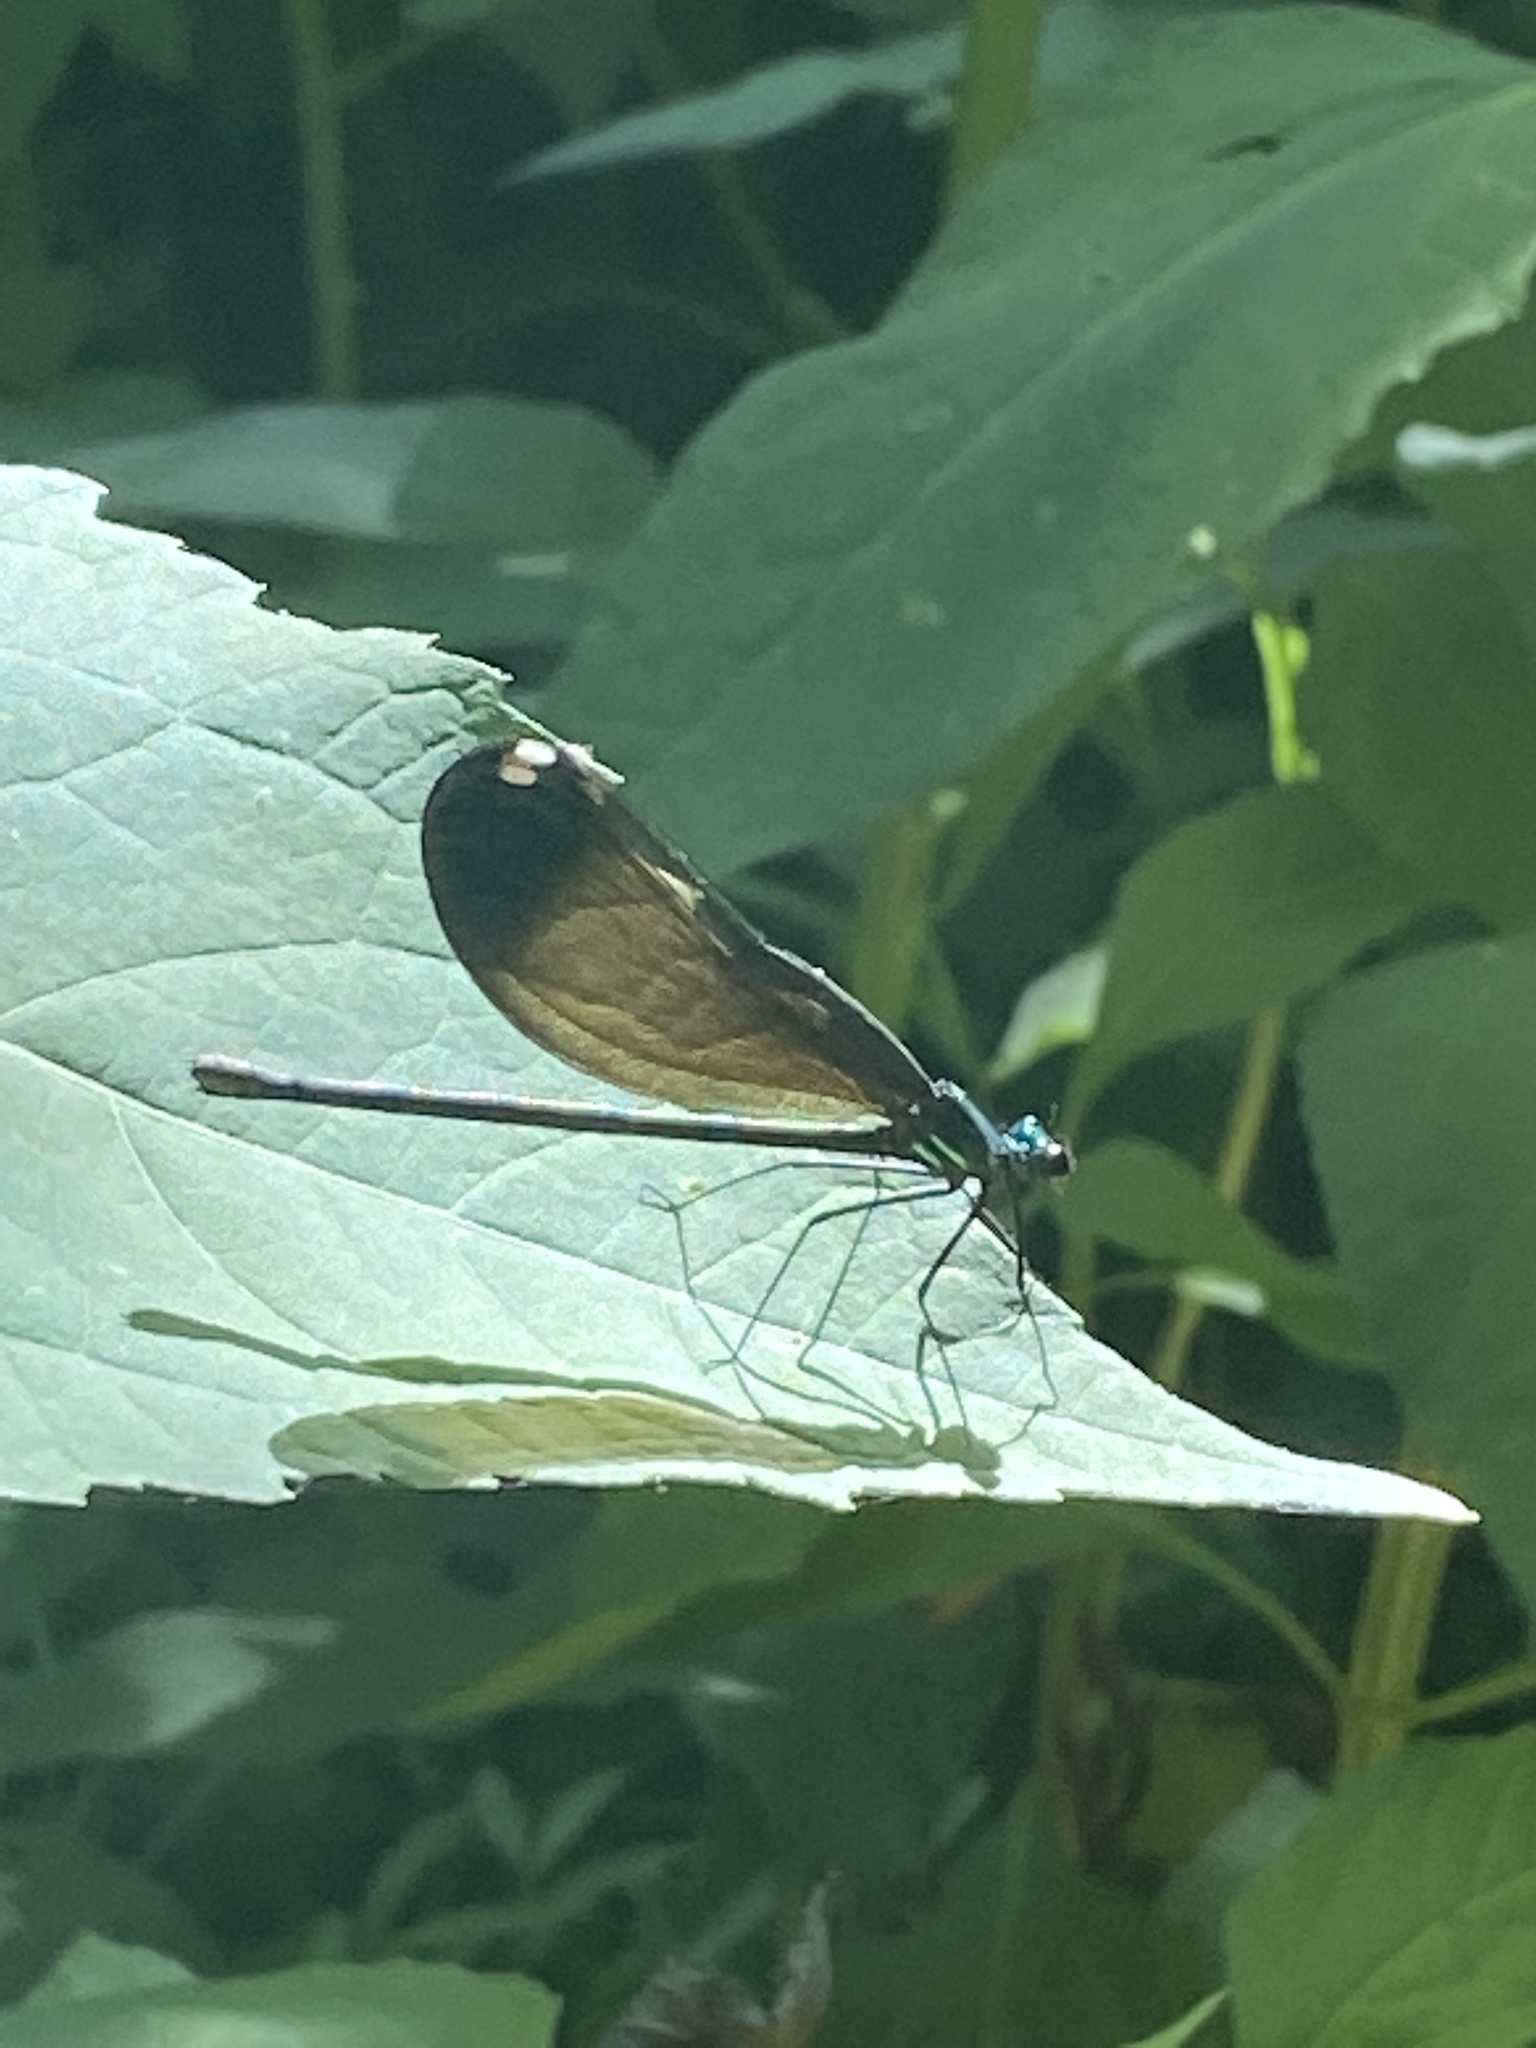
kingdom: Animalia
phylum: Arthropoda
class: Insecta
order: Odonata
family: Calopterygidae
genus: Calopteryx
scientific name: Calopteryx maculata
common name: Ebony jewelwing
